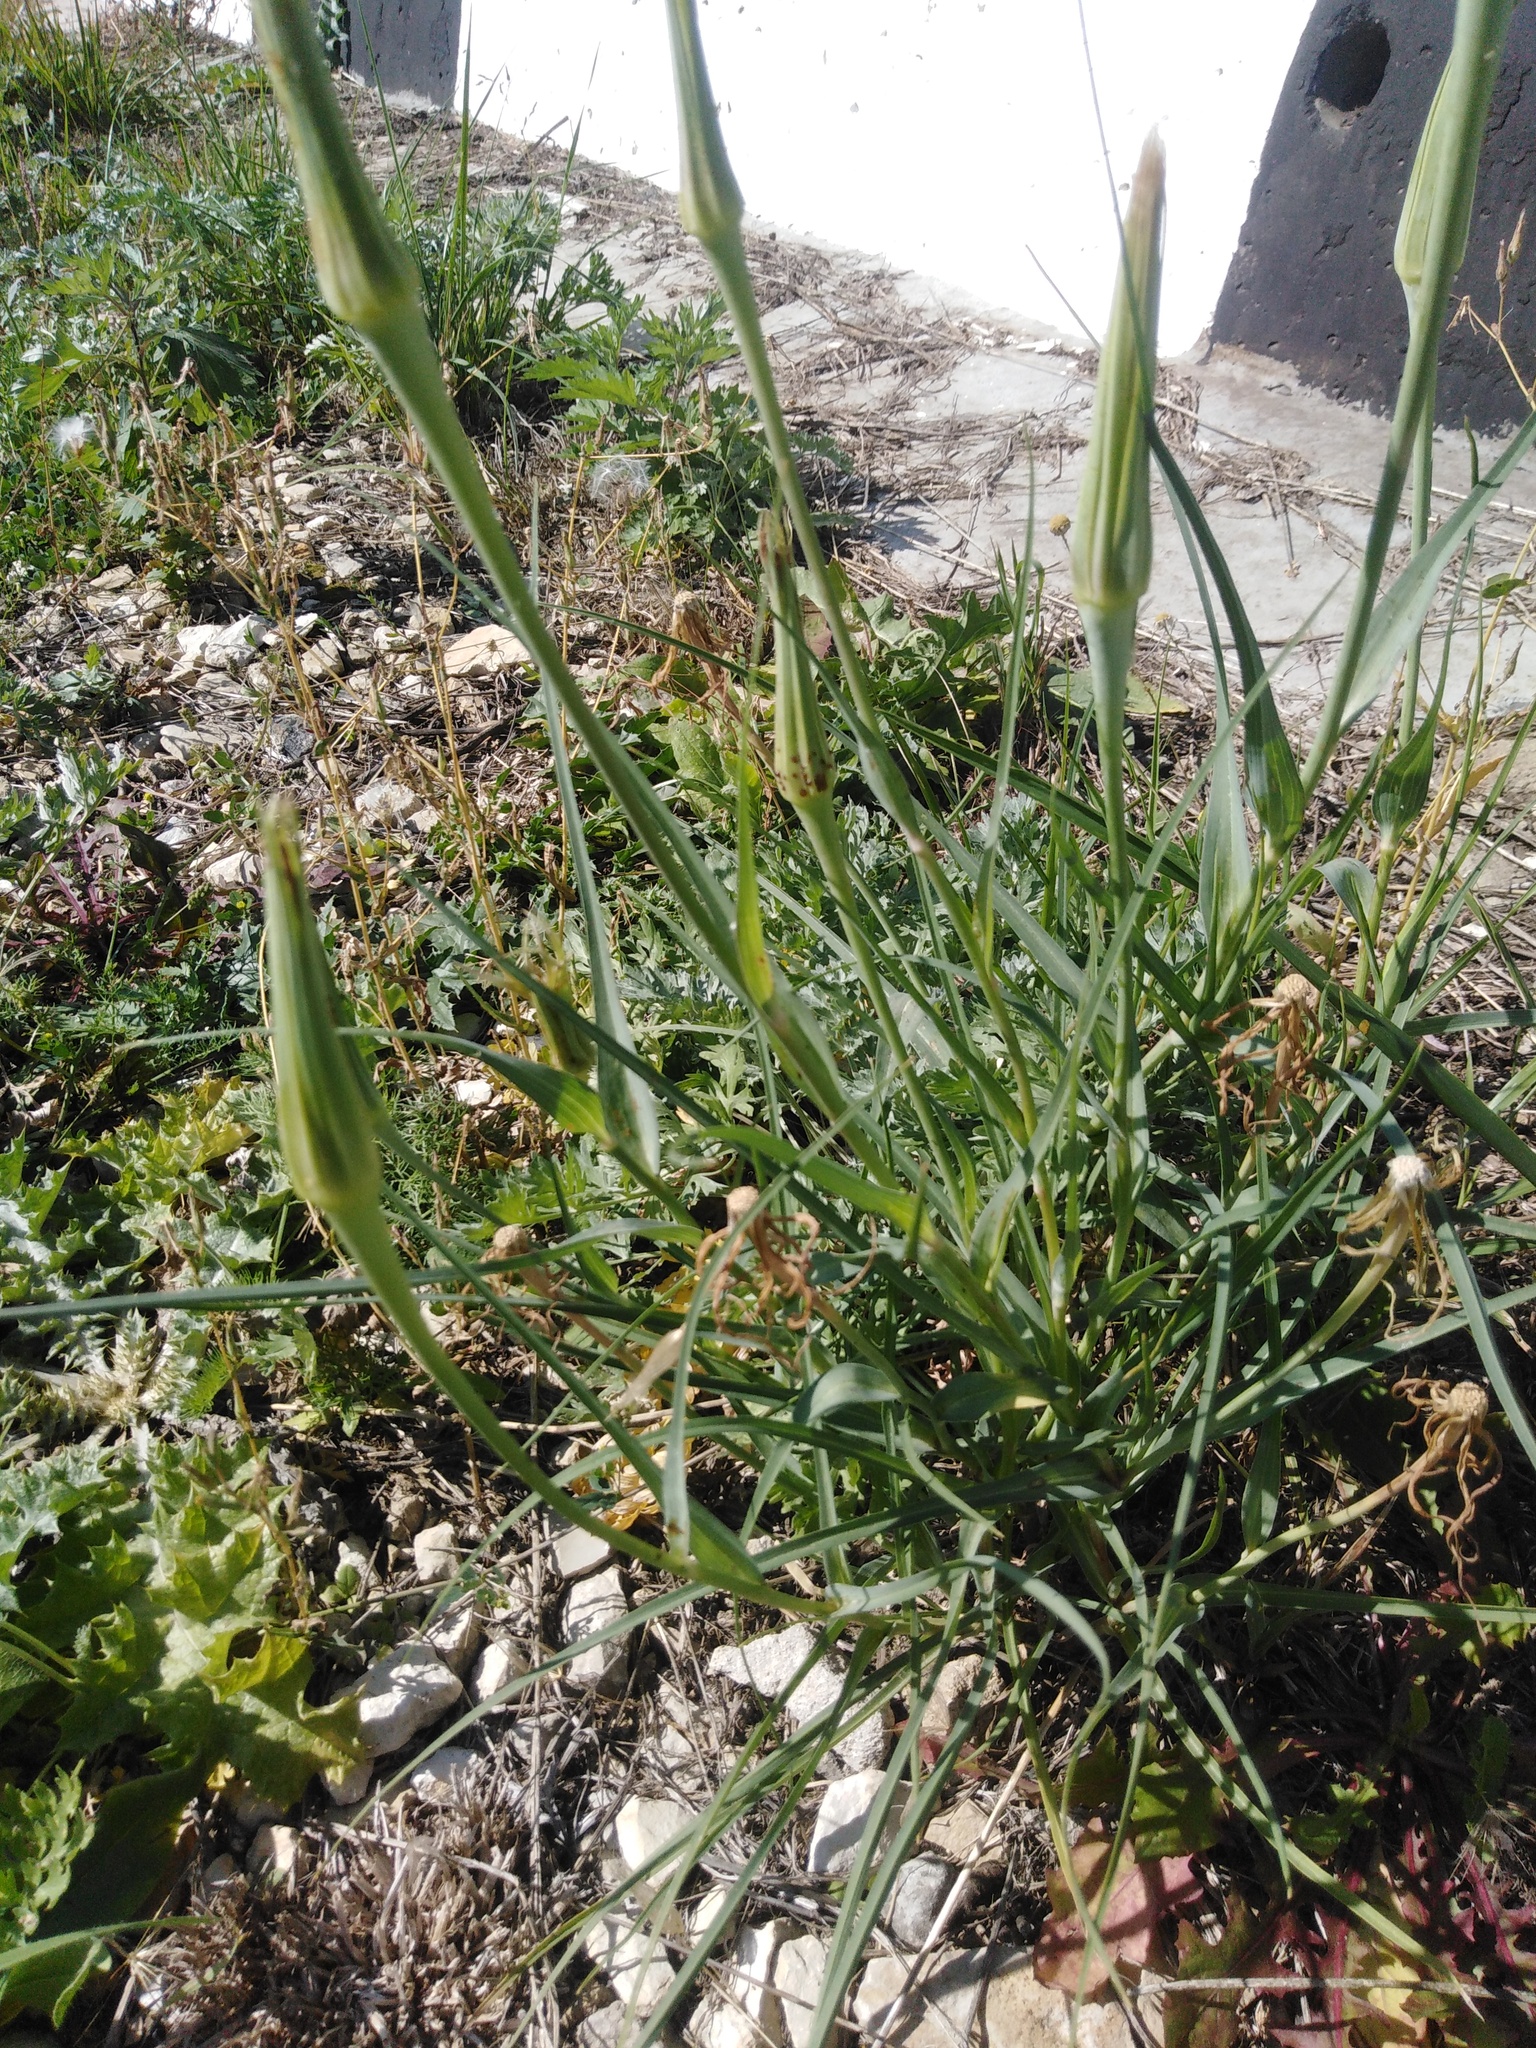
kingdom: Plantae
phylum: Tracheophyta
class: Magnoliopsida
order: Asterales
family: Asteraceae
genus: Tragopogon
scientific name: Tragopogon dubius
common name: Yellow salsify
